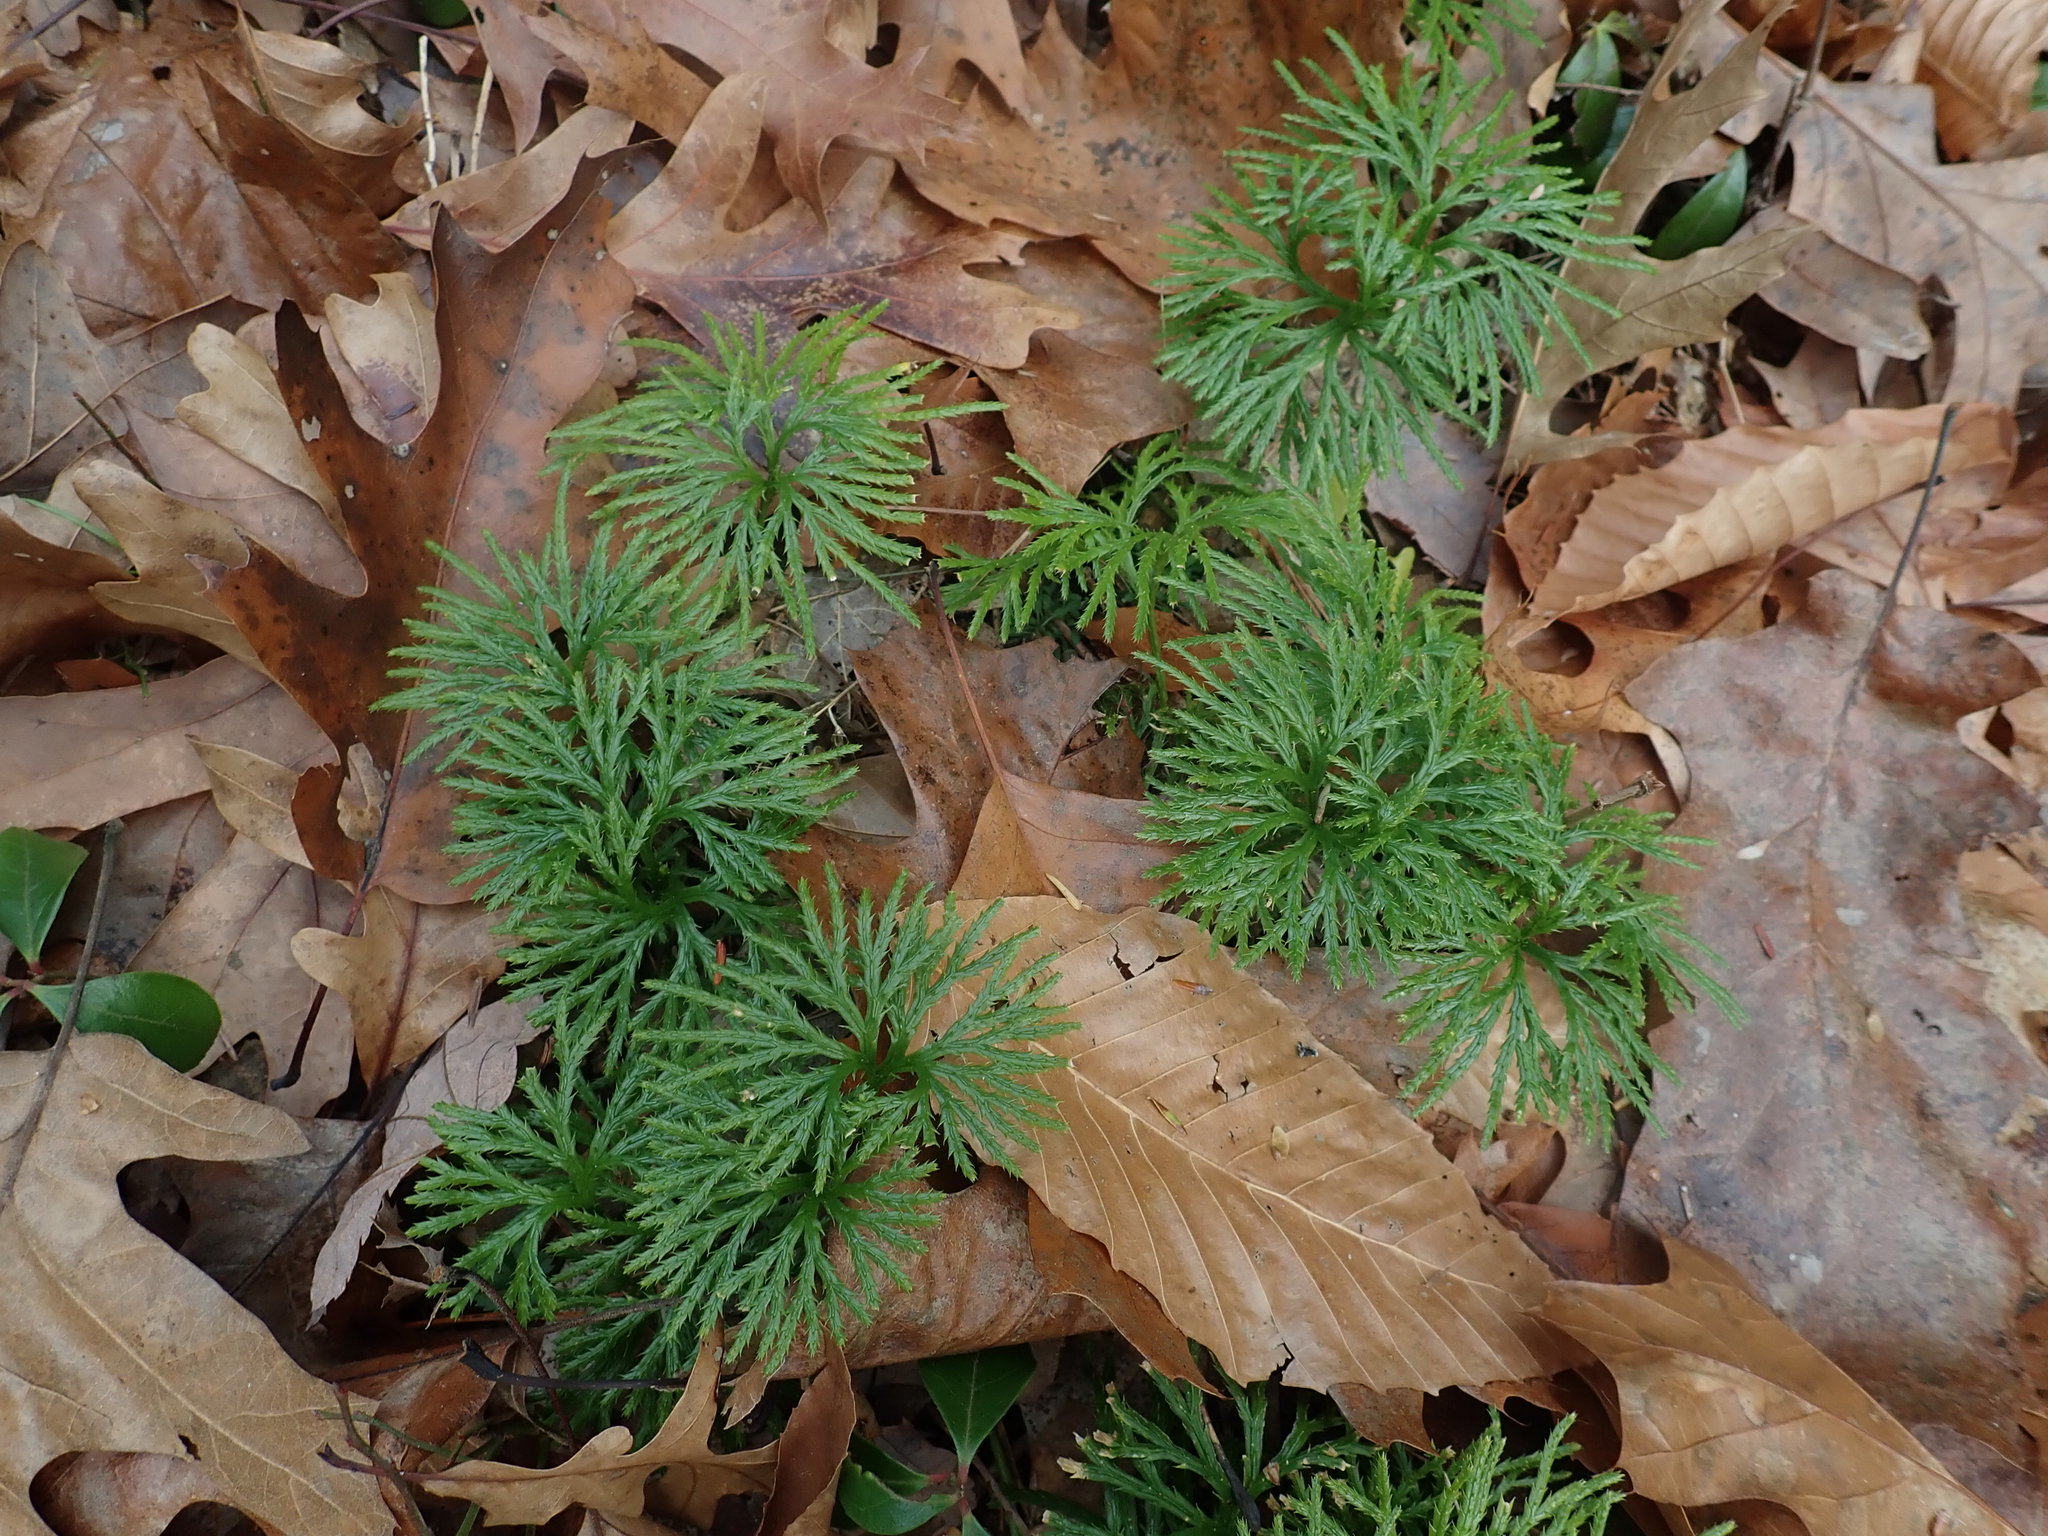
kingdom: Plantae
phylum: Tracheophyta
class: Lycopodiopsida
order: Lycopodiales
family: Lycopodiaceae
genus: Diphasiastrum
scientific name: Diphasiastrum digitatum
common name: Southern running-pine
